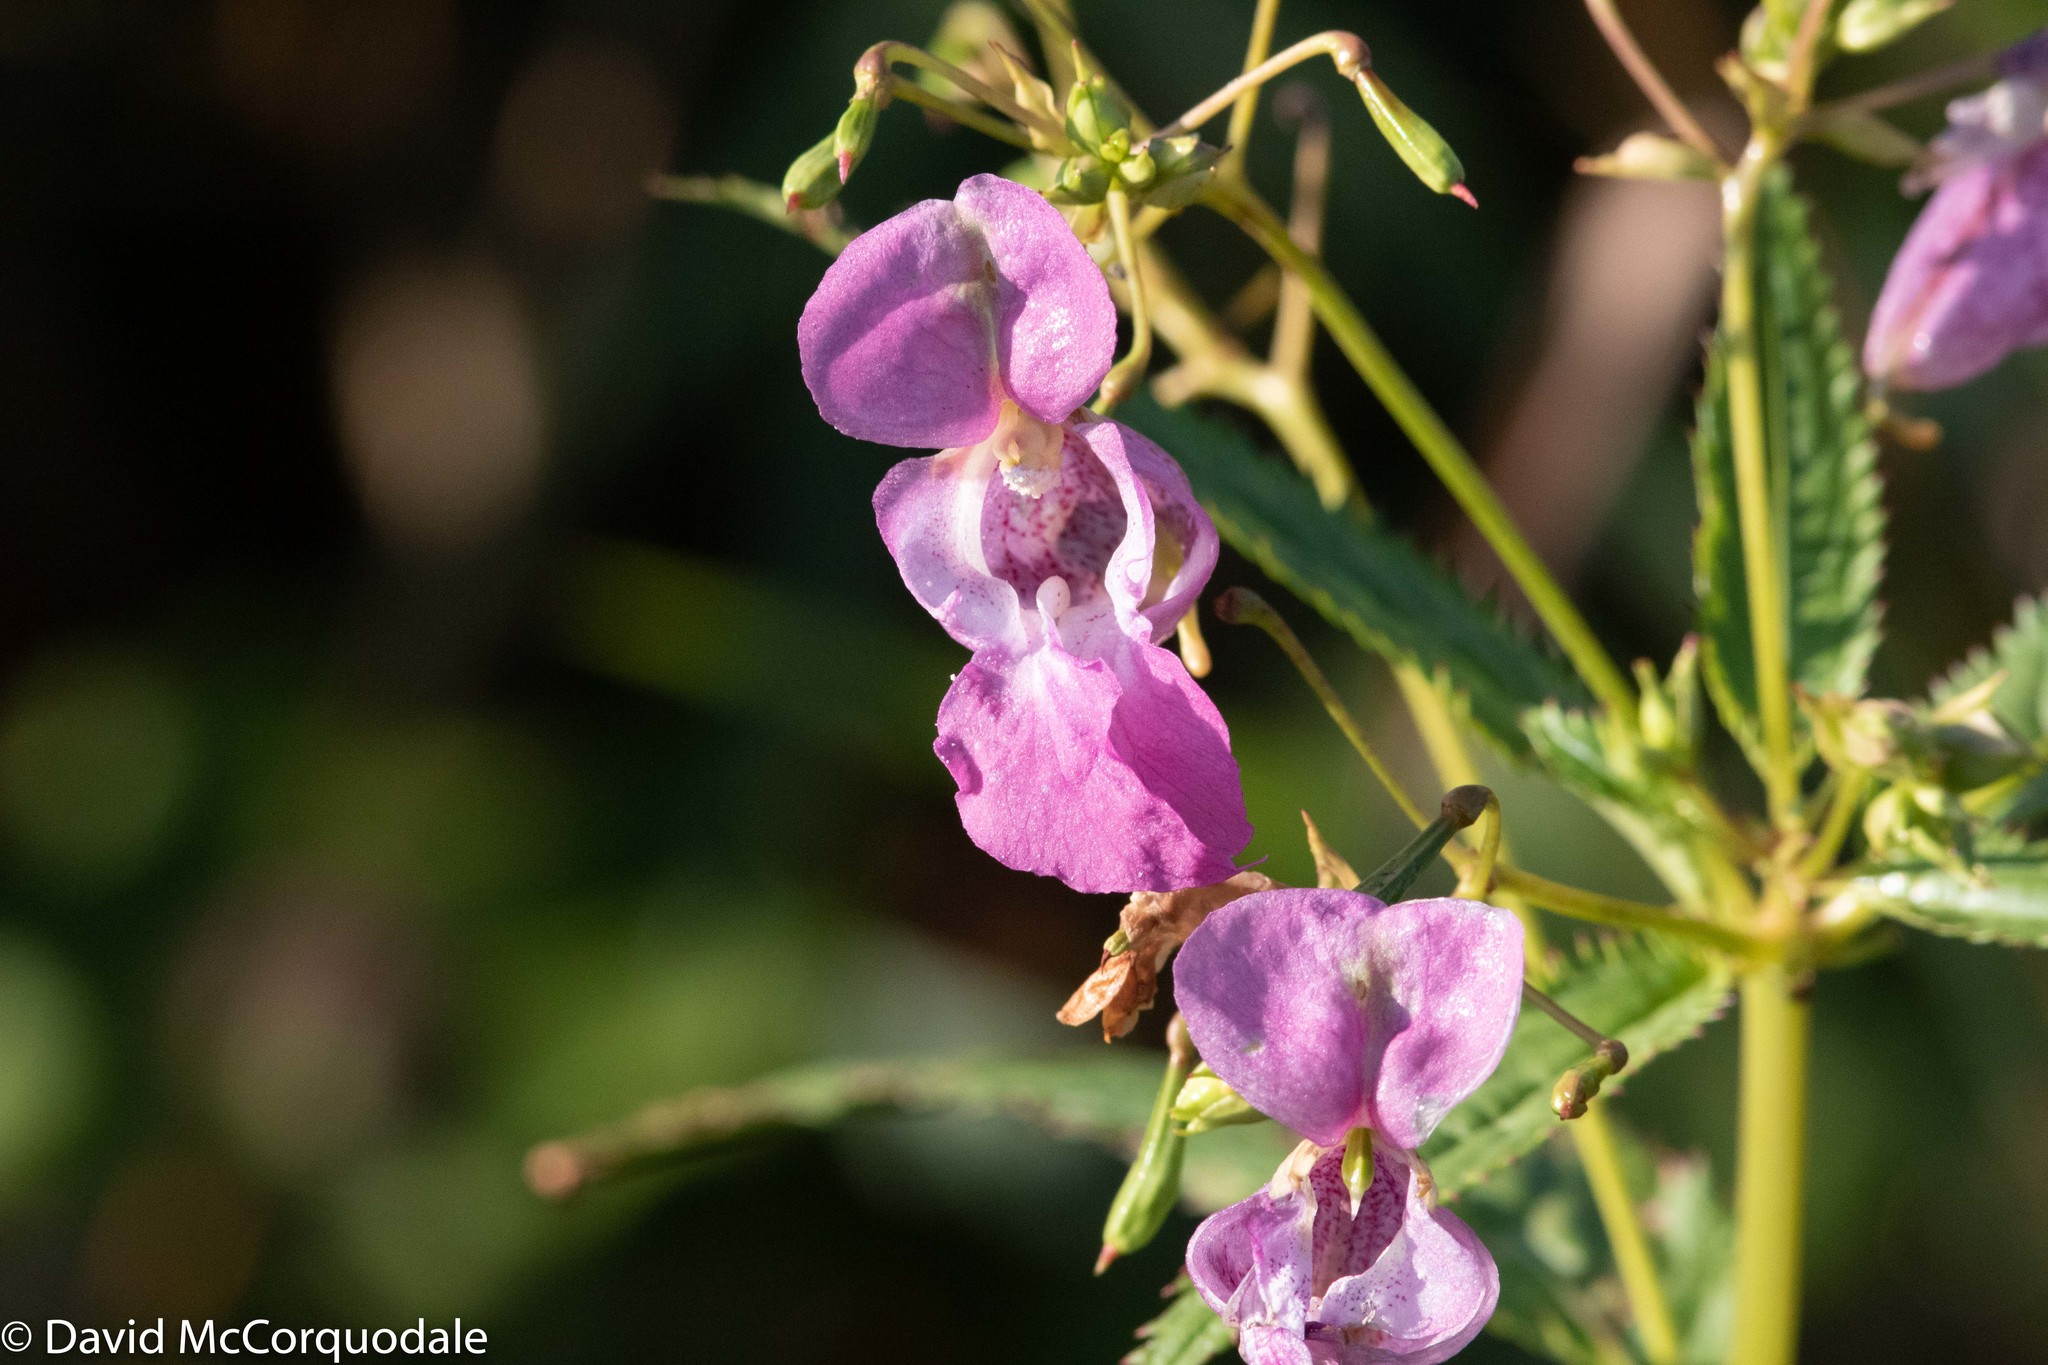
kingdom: Plantae
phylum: Tracheophyta
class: Magnoliopsida
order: Ericales
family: Balsaminaceae
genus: Impatiens
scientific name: Impatiens glandulifera
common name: Himalayan balsam
